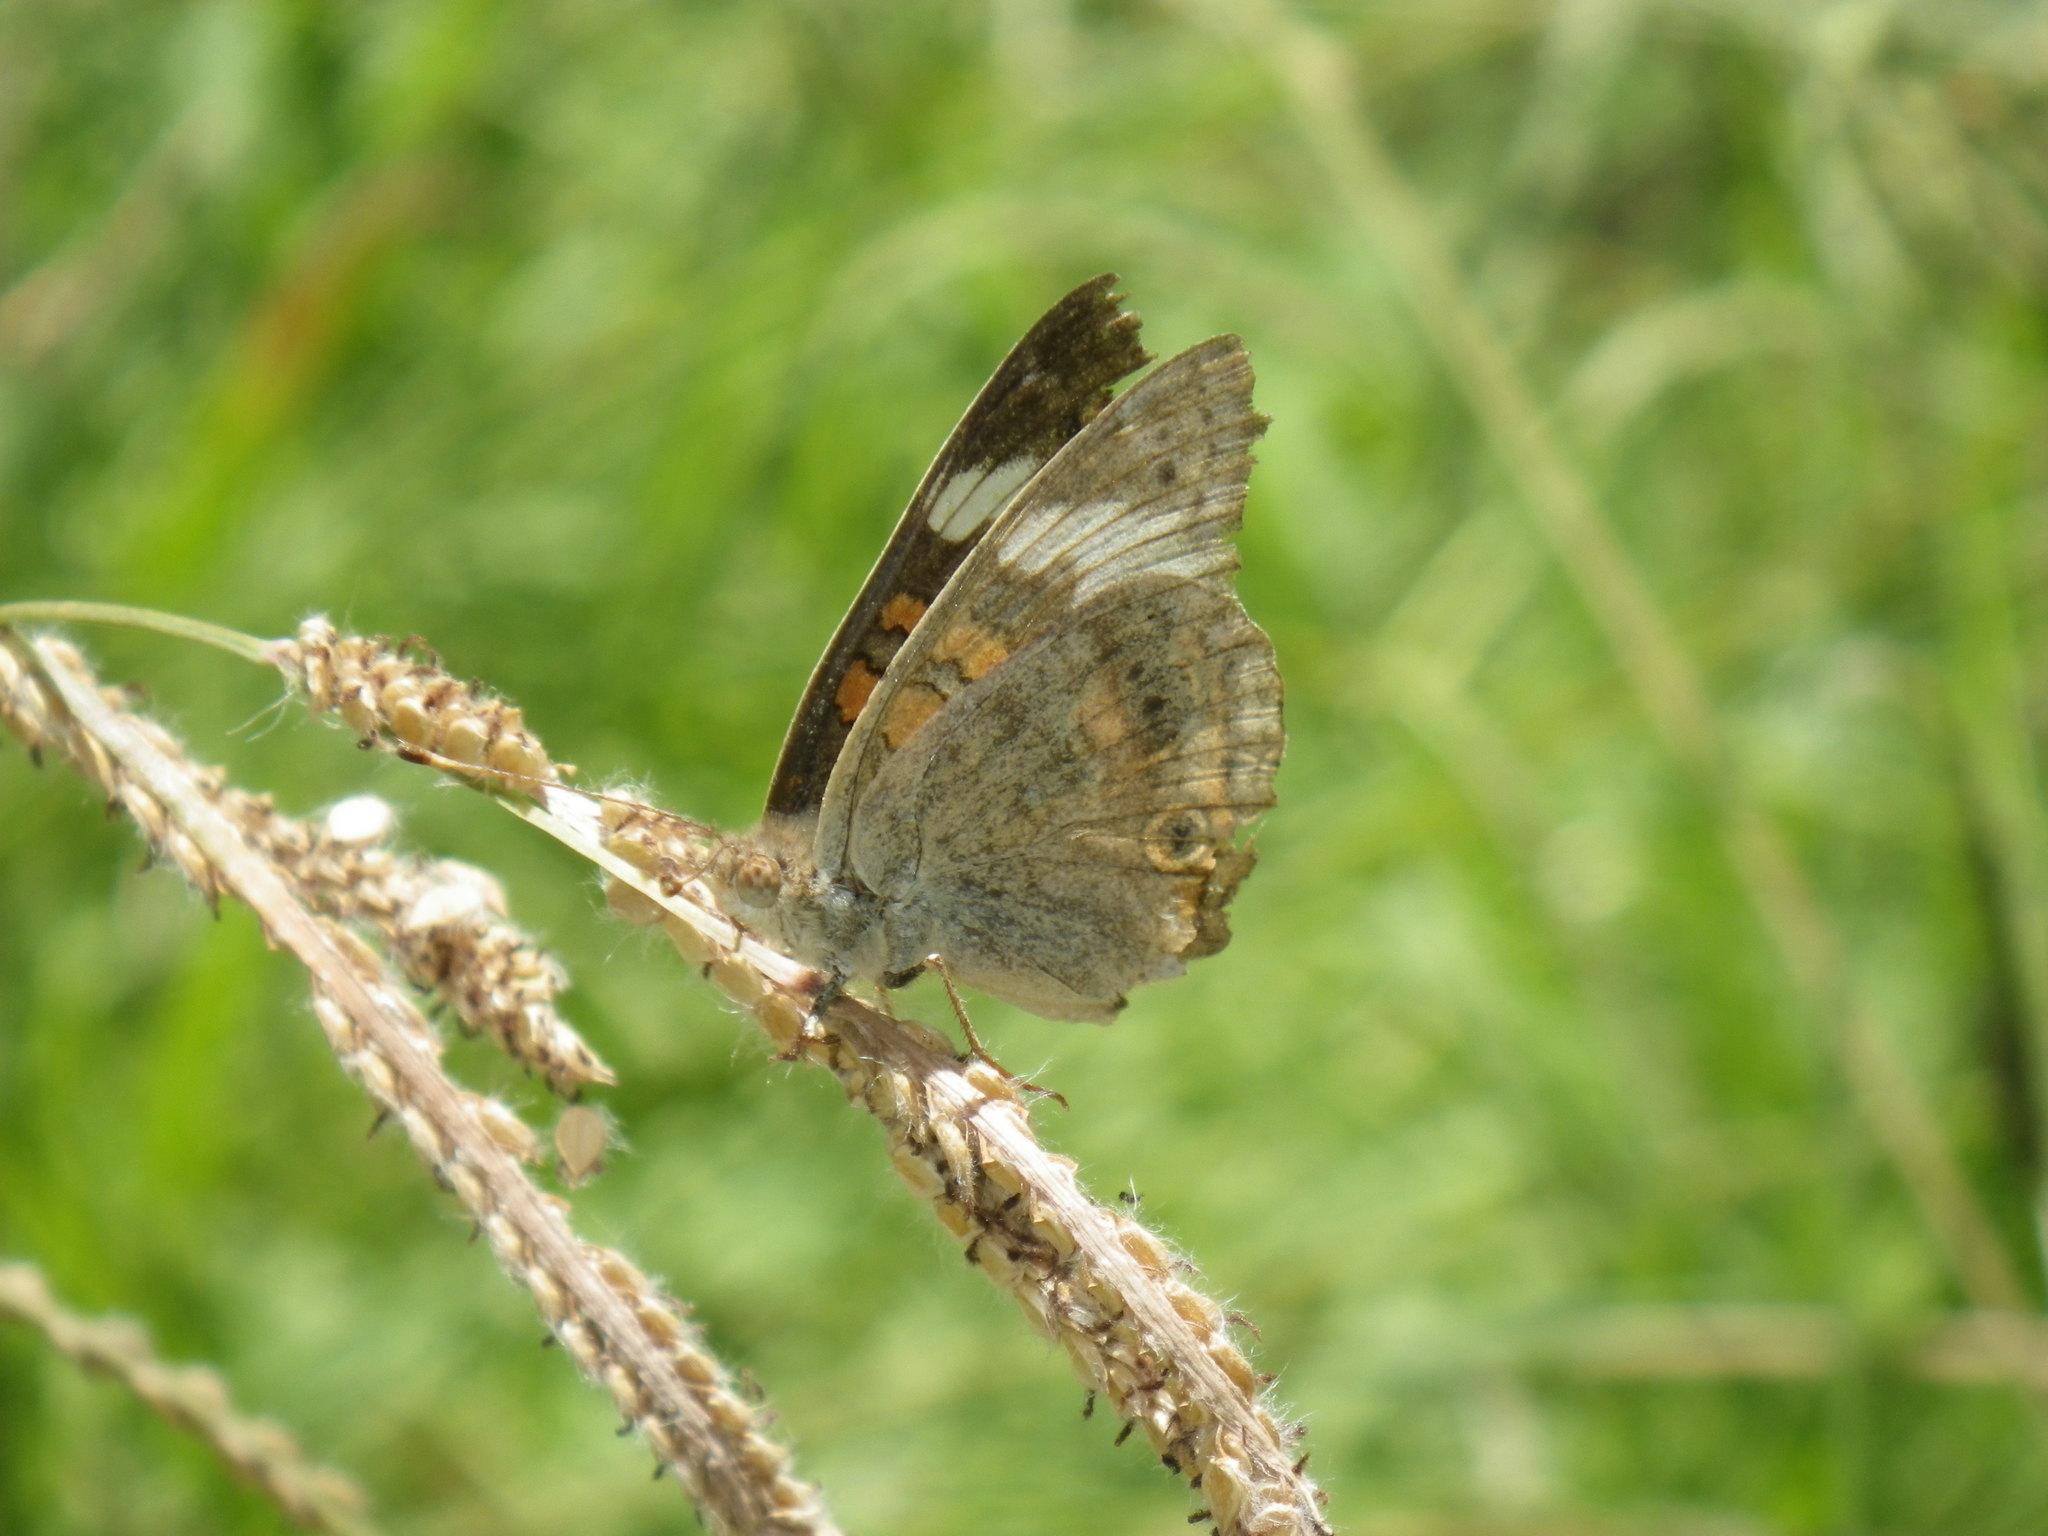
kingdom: Animalia
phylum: Arthropoda
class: Insecta
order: Lepidoptera
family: Nymphalidae
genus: Junonia
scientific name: Junonia grisea
